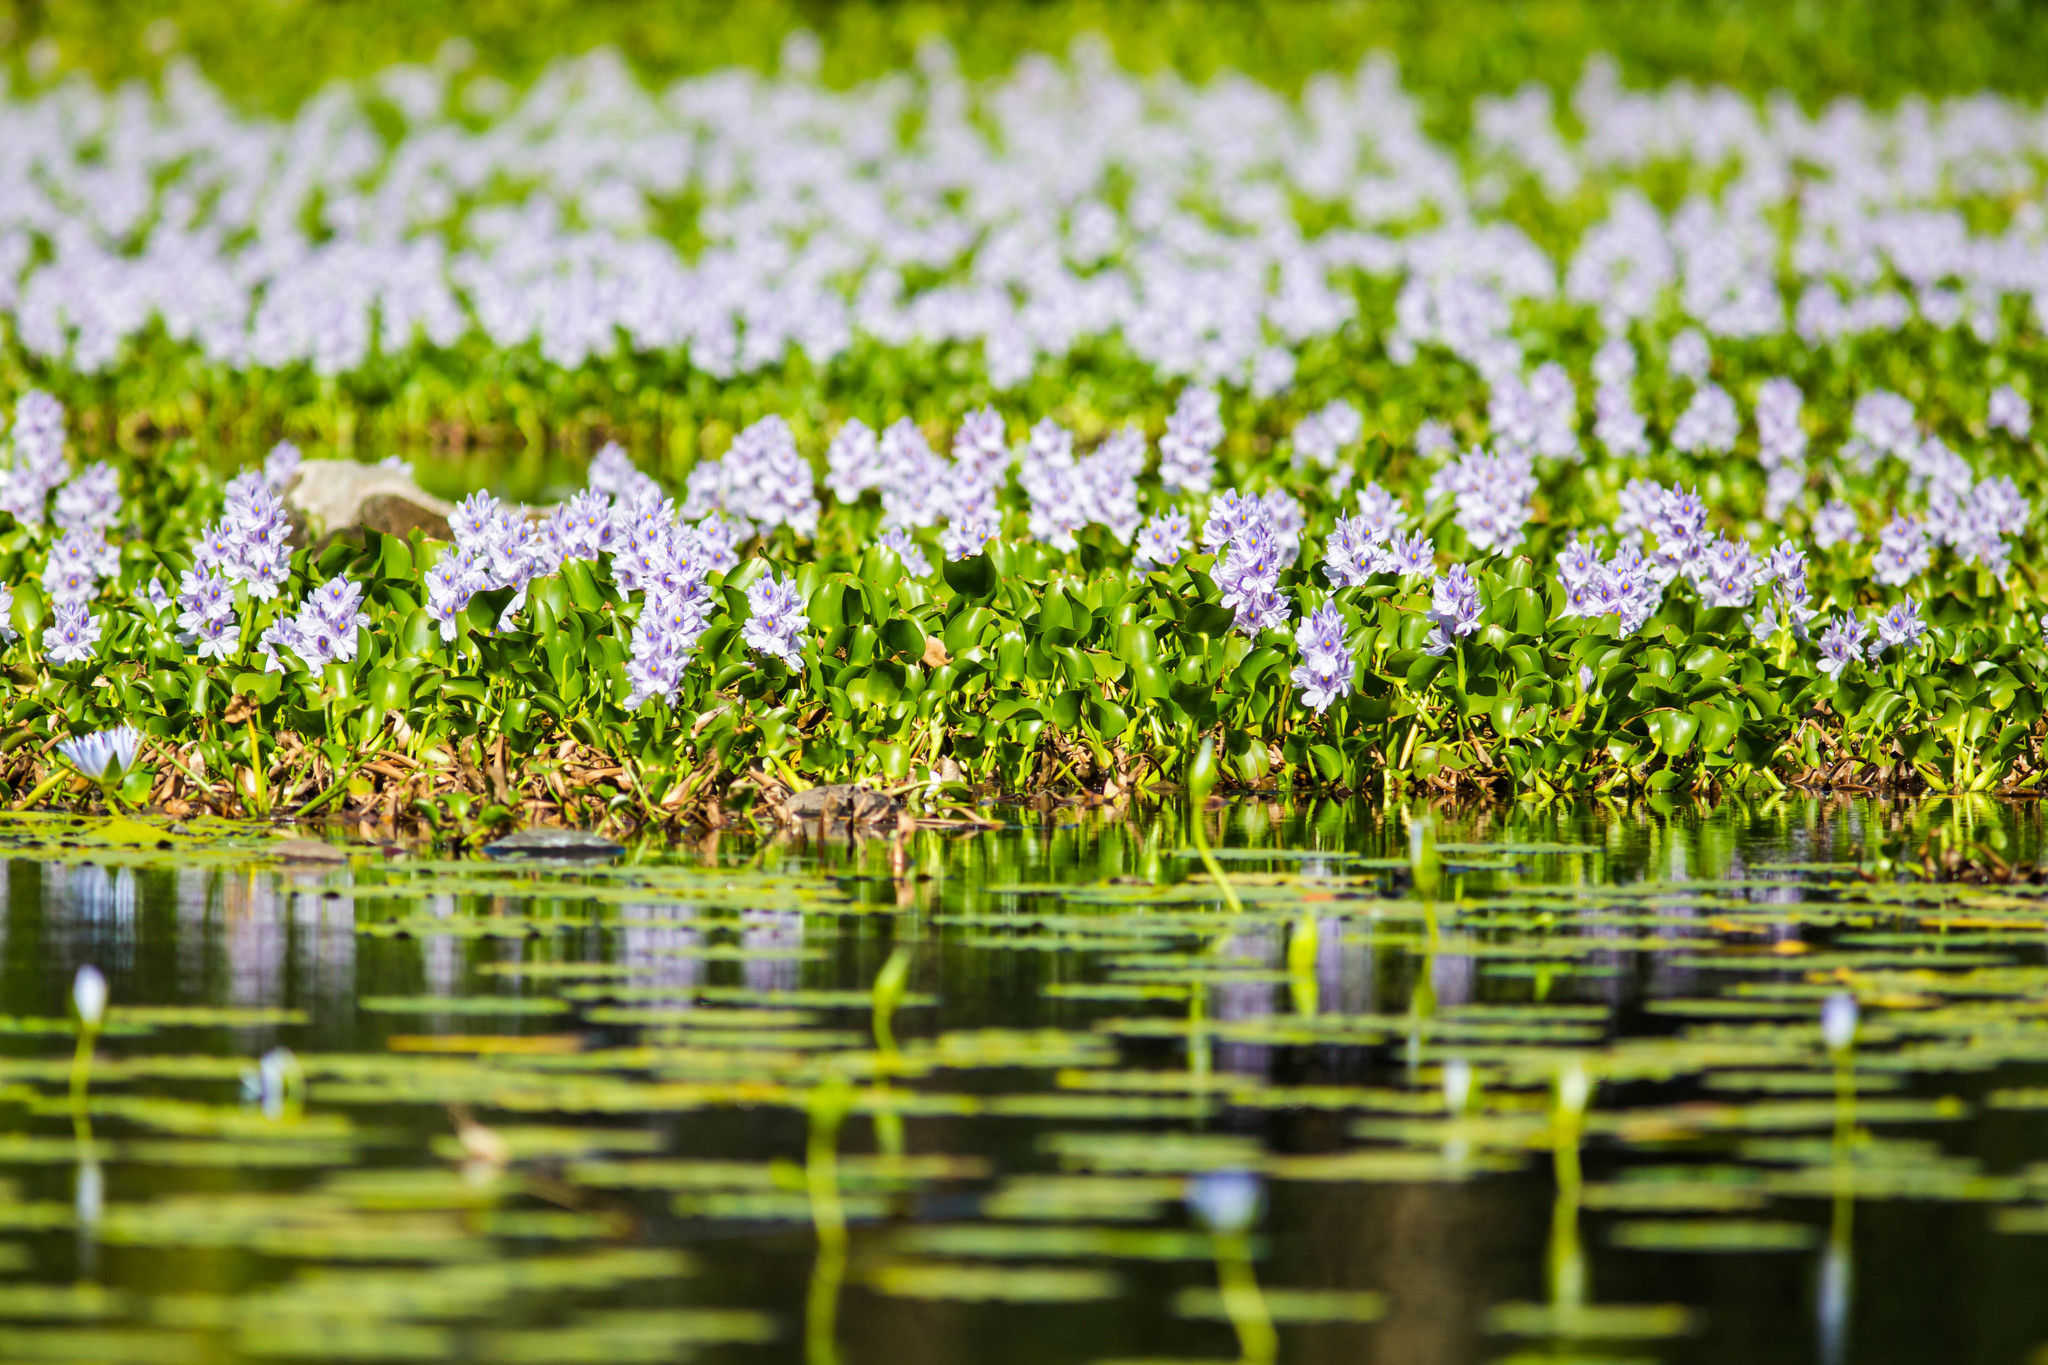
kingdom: Plantae
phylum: Tracheophyta
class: Liliopsida
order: Commelinales
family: Pontederiaceae
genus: Pontederia
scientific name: Pontederia crassipes
